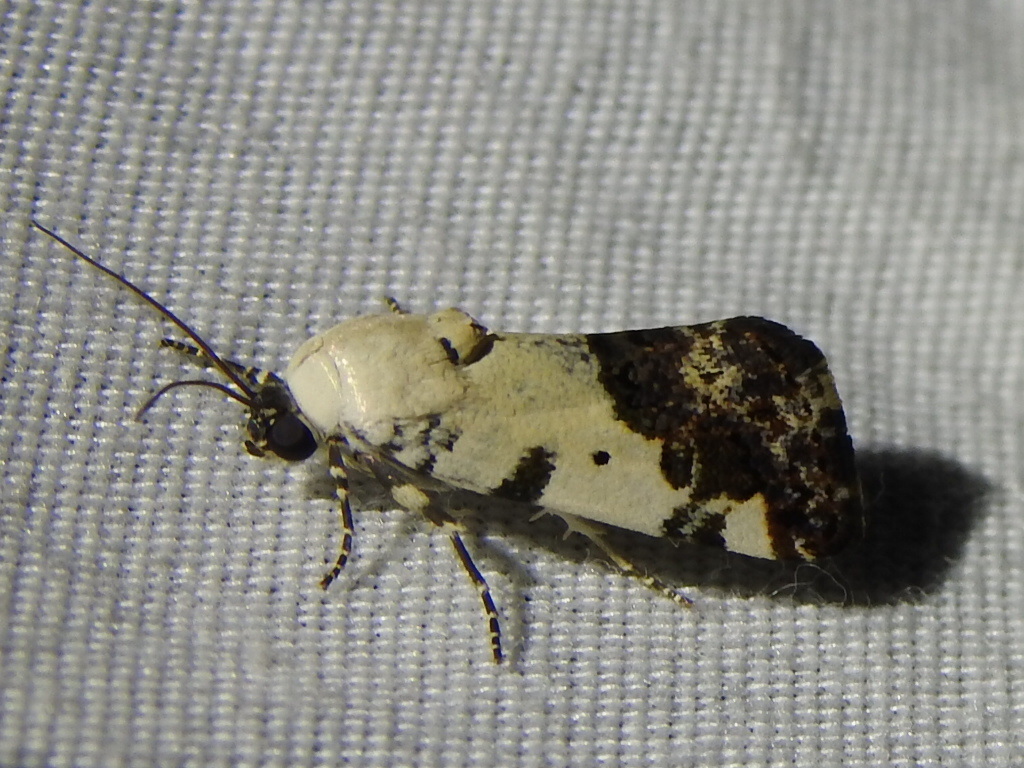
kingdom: Animalia
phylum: Arthropoda
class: Insecta
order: Lepidoptera
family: Noctuidae
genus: Acontia
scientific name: Acontia aprica
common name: Nun
